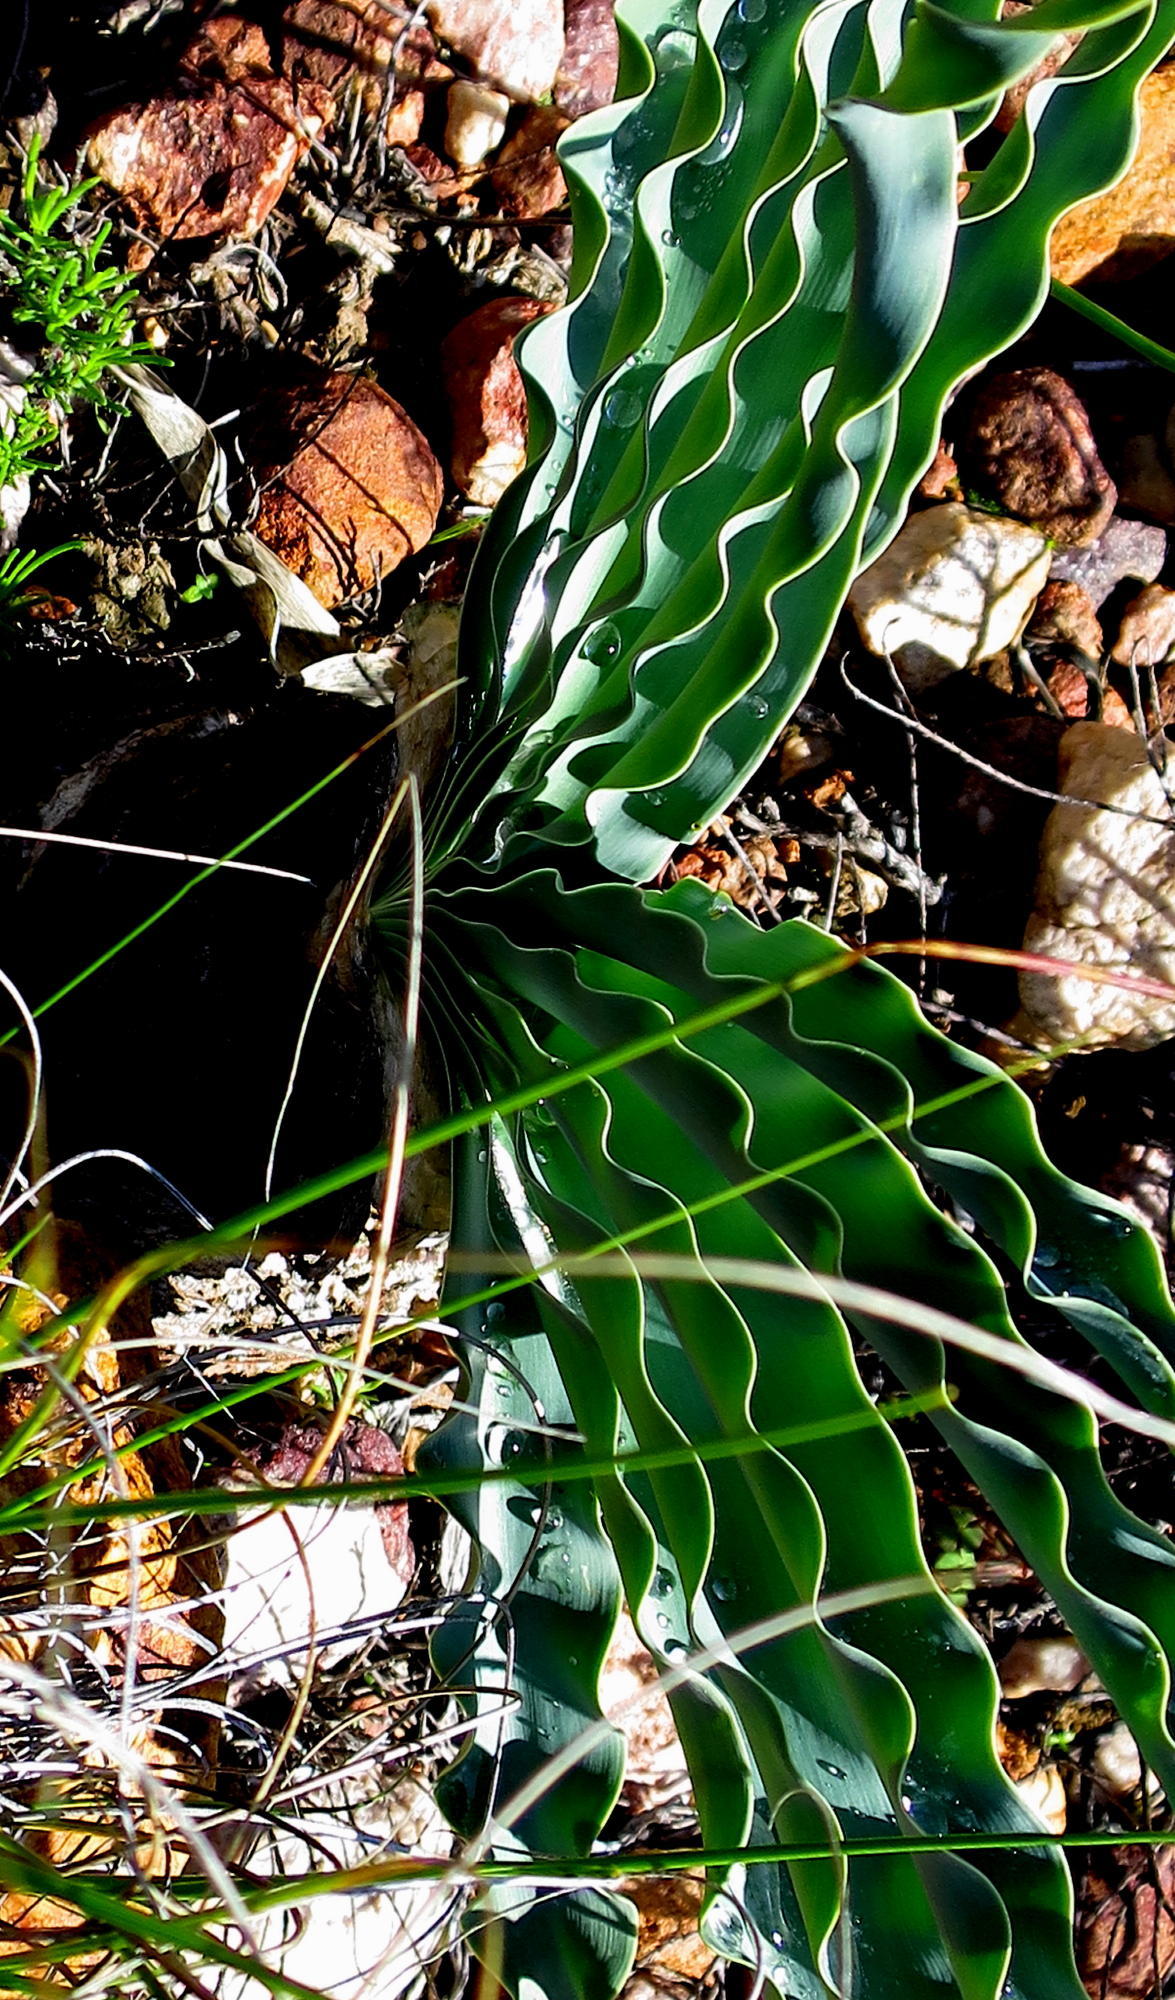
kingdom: Plantae
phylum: Tracheophyta
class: Liliopsida
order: Asparagales
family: Amaryllidaceae
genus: Boophone
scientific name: Boophone disticha
